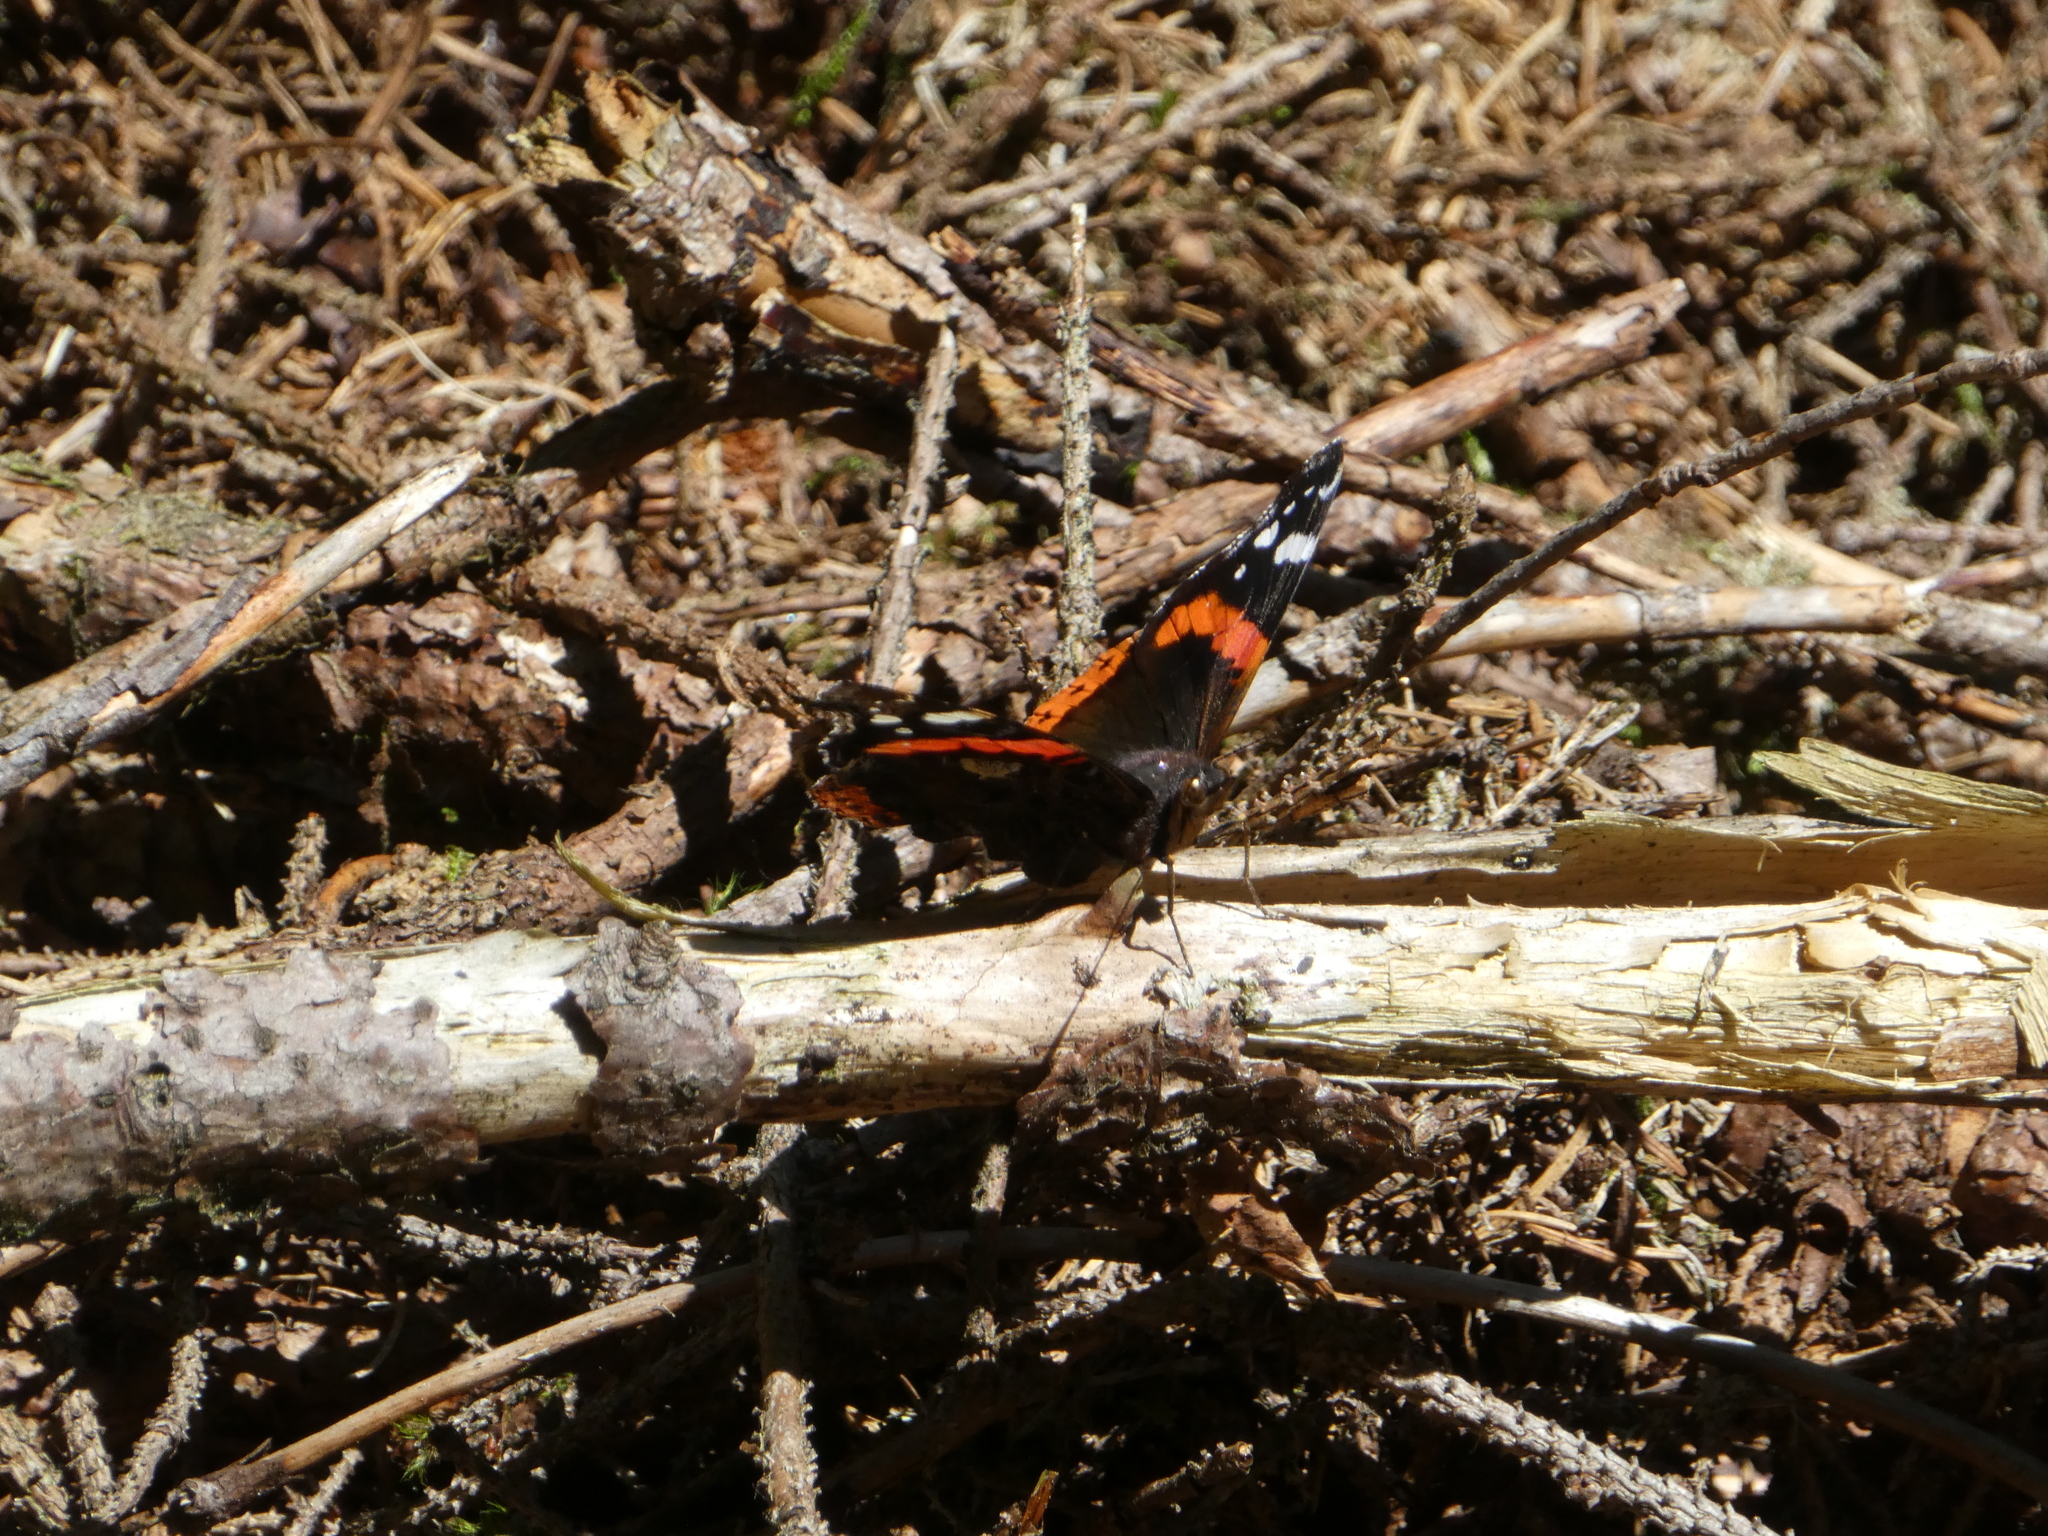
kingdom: Animalia
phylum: Arthropoda
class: Insecta
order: Lepidoptera
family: Nymphalidae
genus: Vanessa
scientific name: Vanessa atalanta
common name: Red admiral
